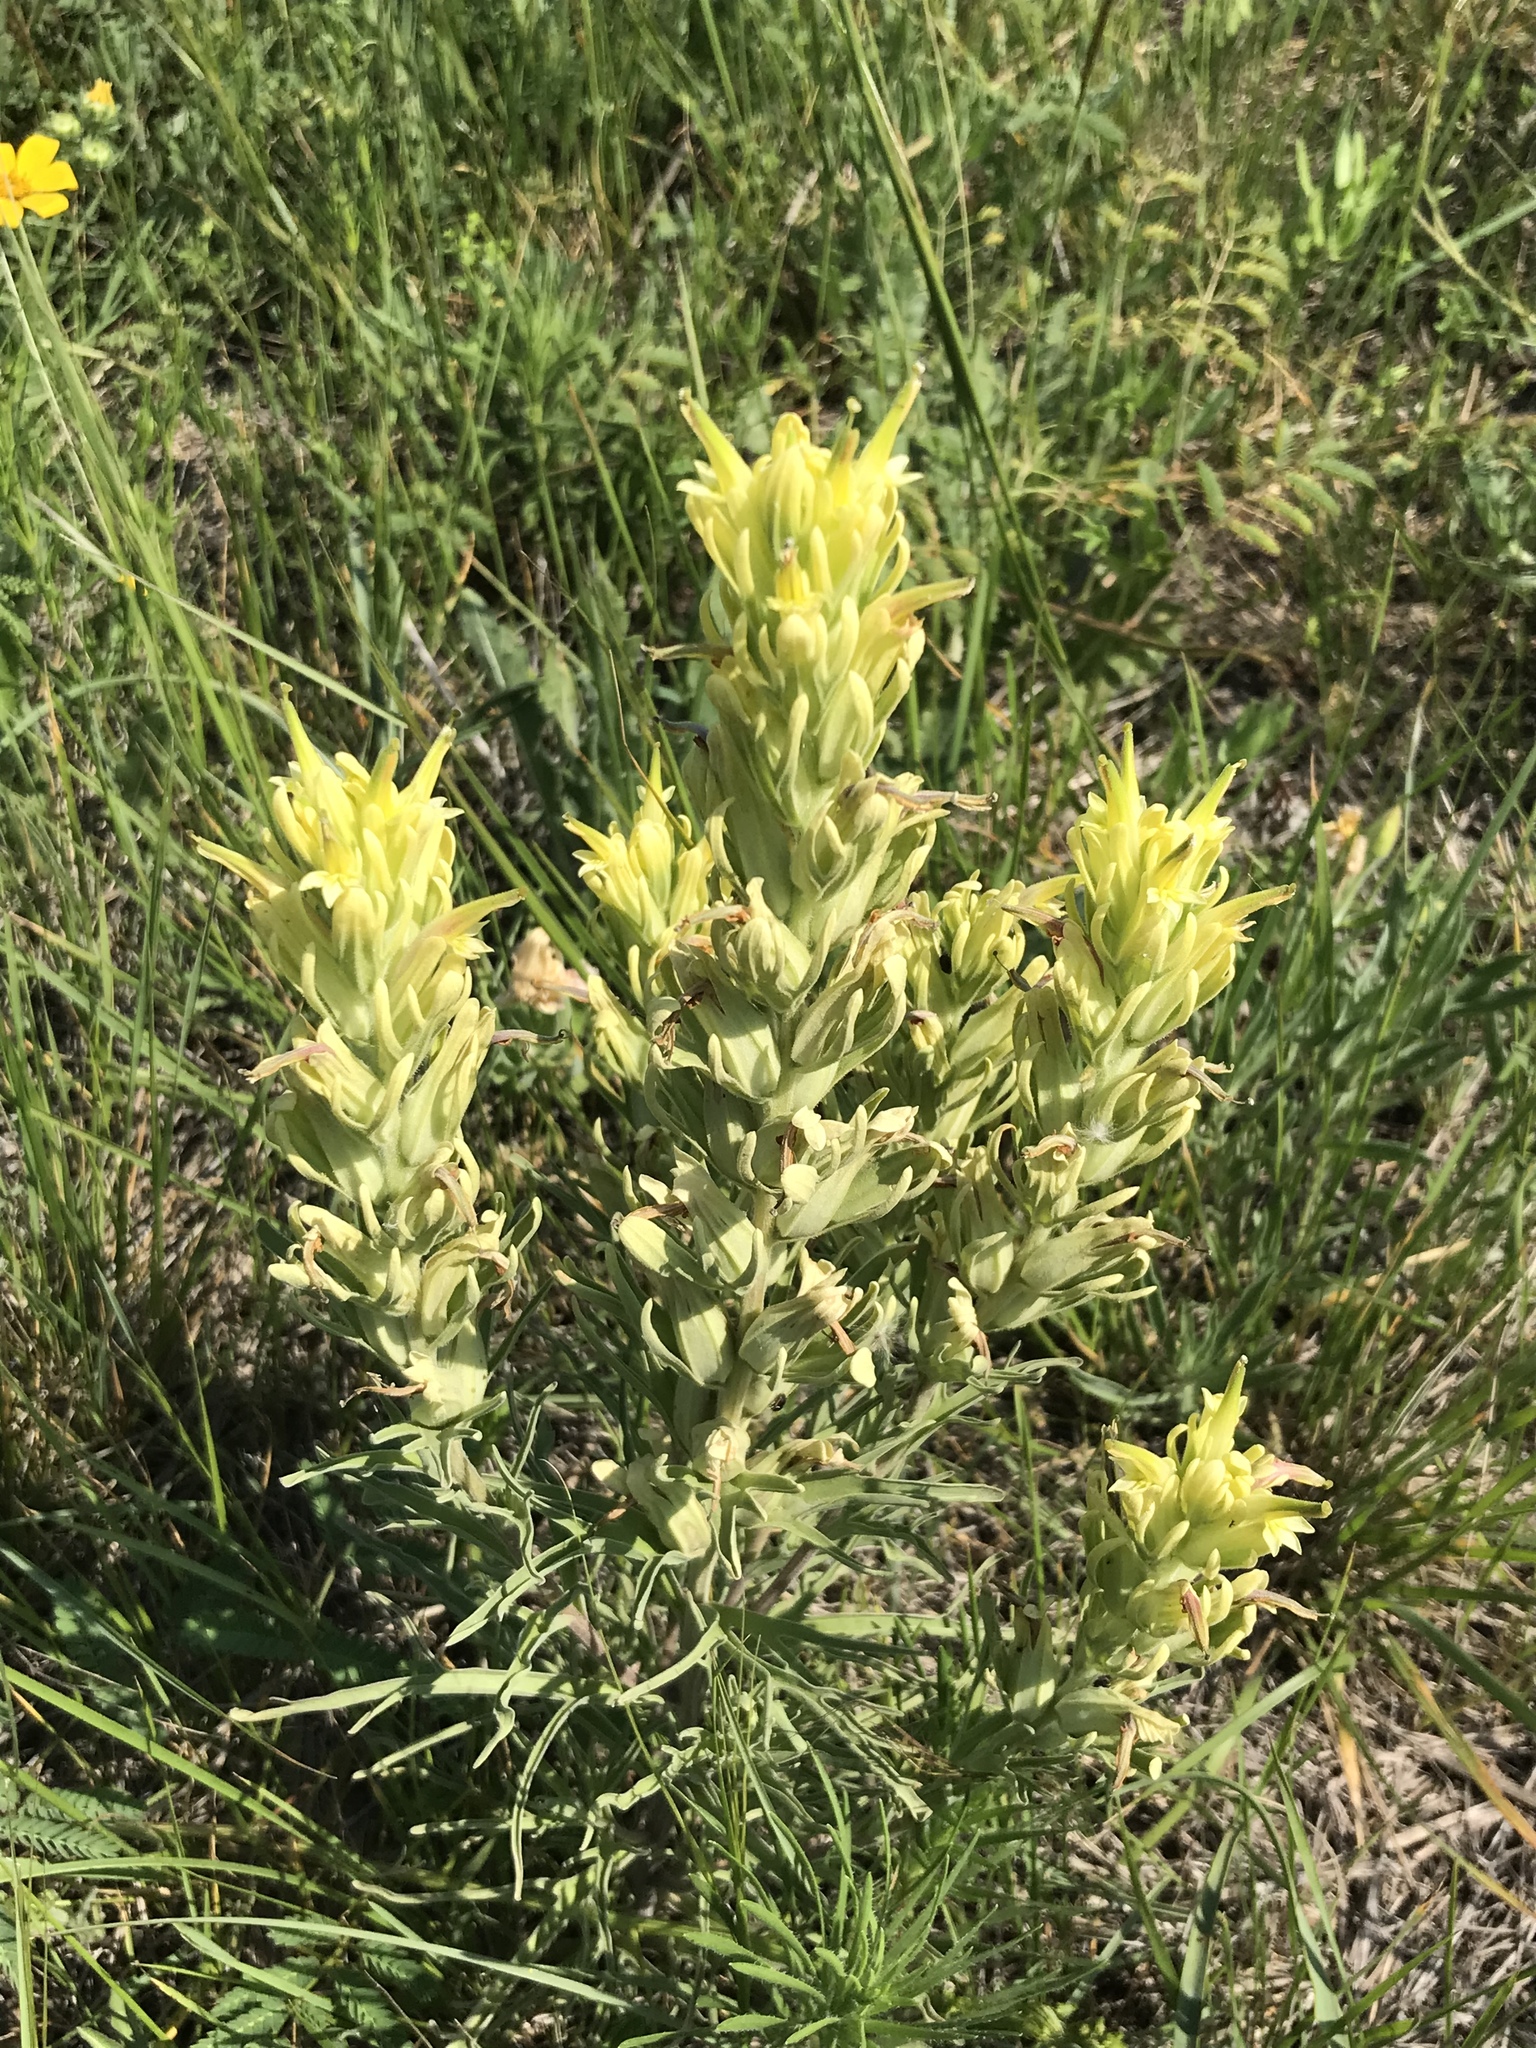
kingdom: Plantae
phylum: Tracheophyta
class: Magnoliopsida
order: Lamiales
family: Orobanchaceae
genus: Castilleja
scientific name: Castilleja citrina
